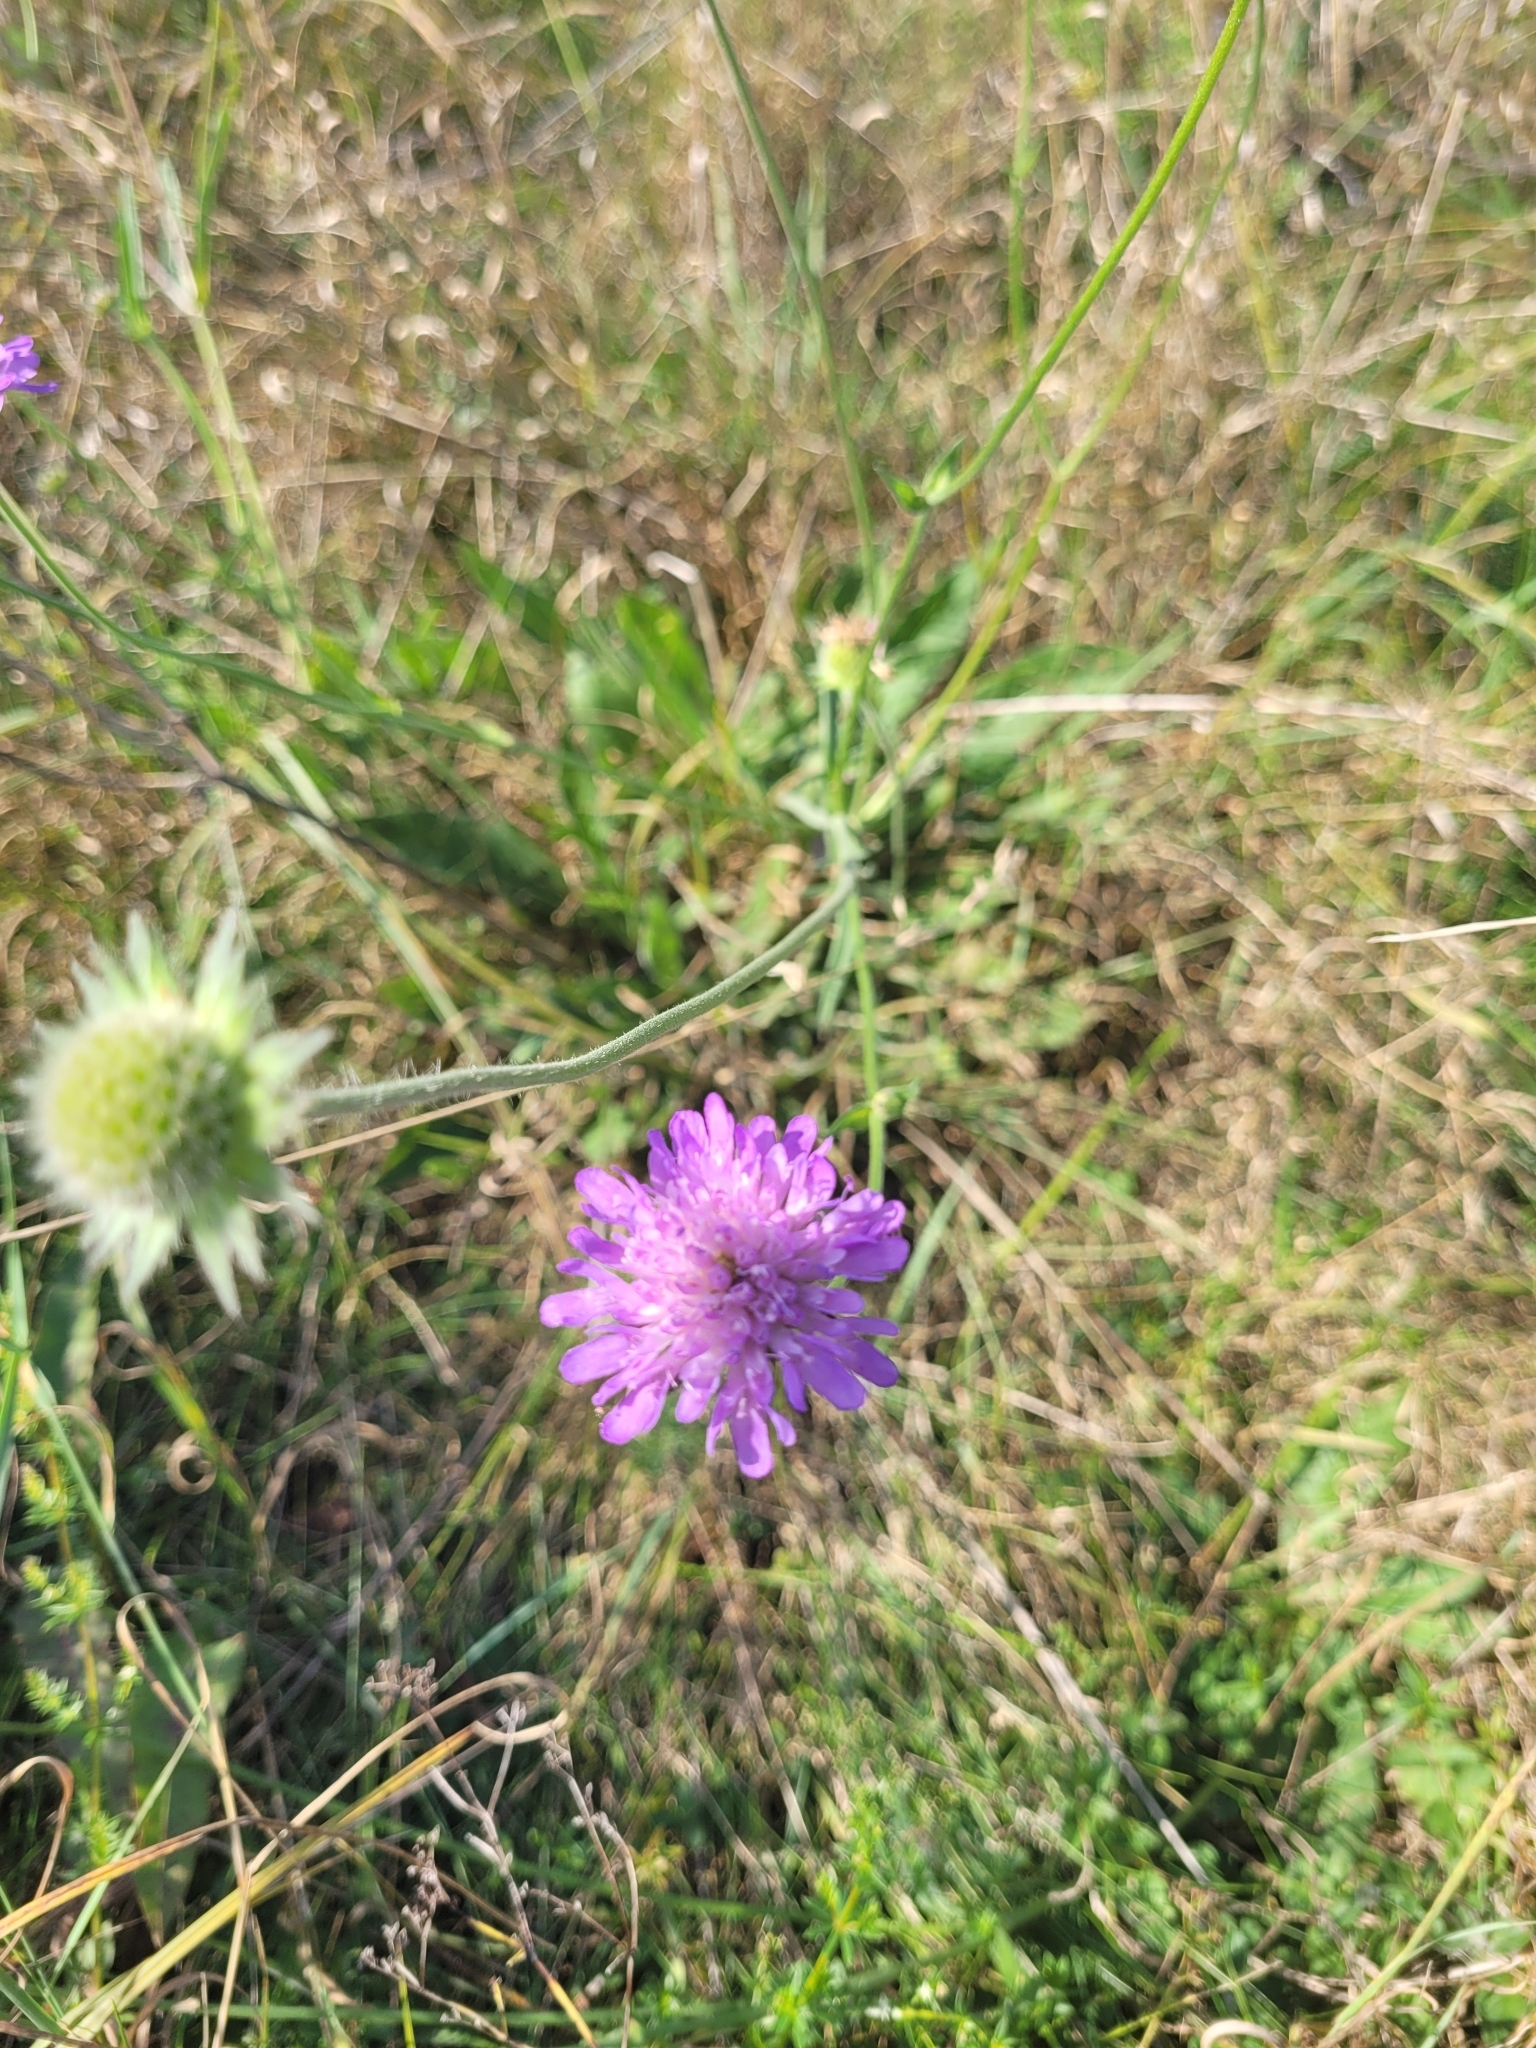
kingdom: Plantae
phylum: Tracheophyta
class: Magnoliopsida
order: Dipsacales
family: Caprifoliaceae
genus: Knautia
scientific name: Knautia arvensis
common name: Field scabiosa
